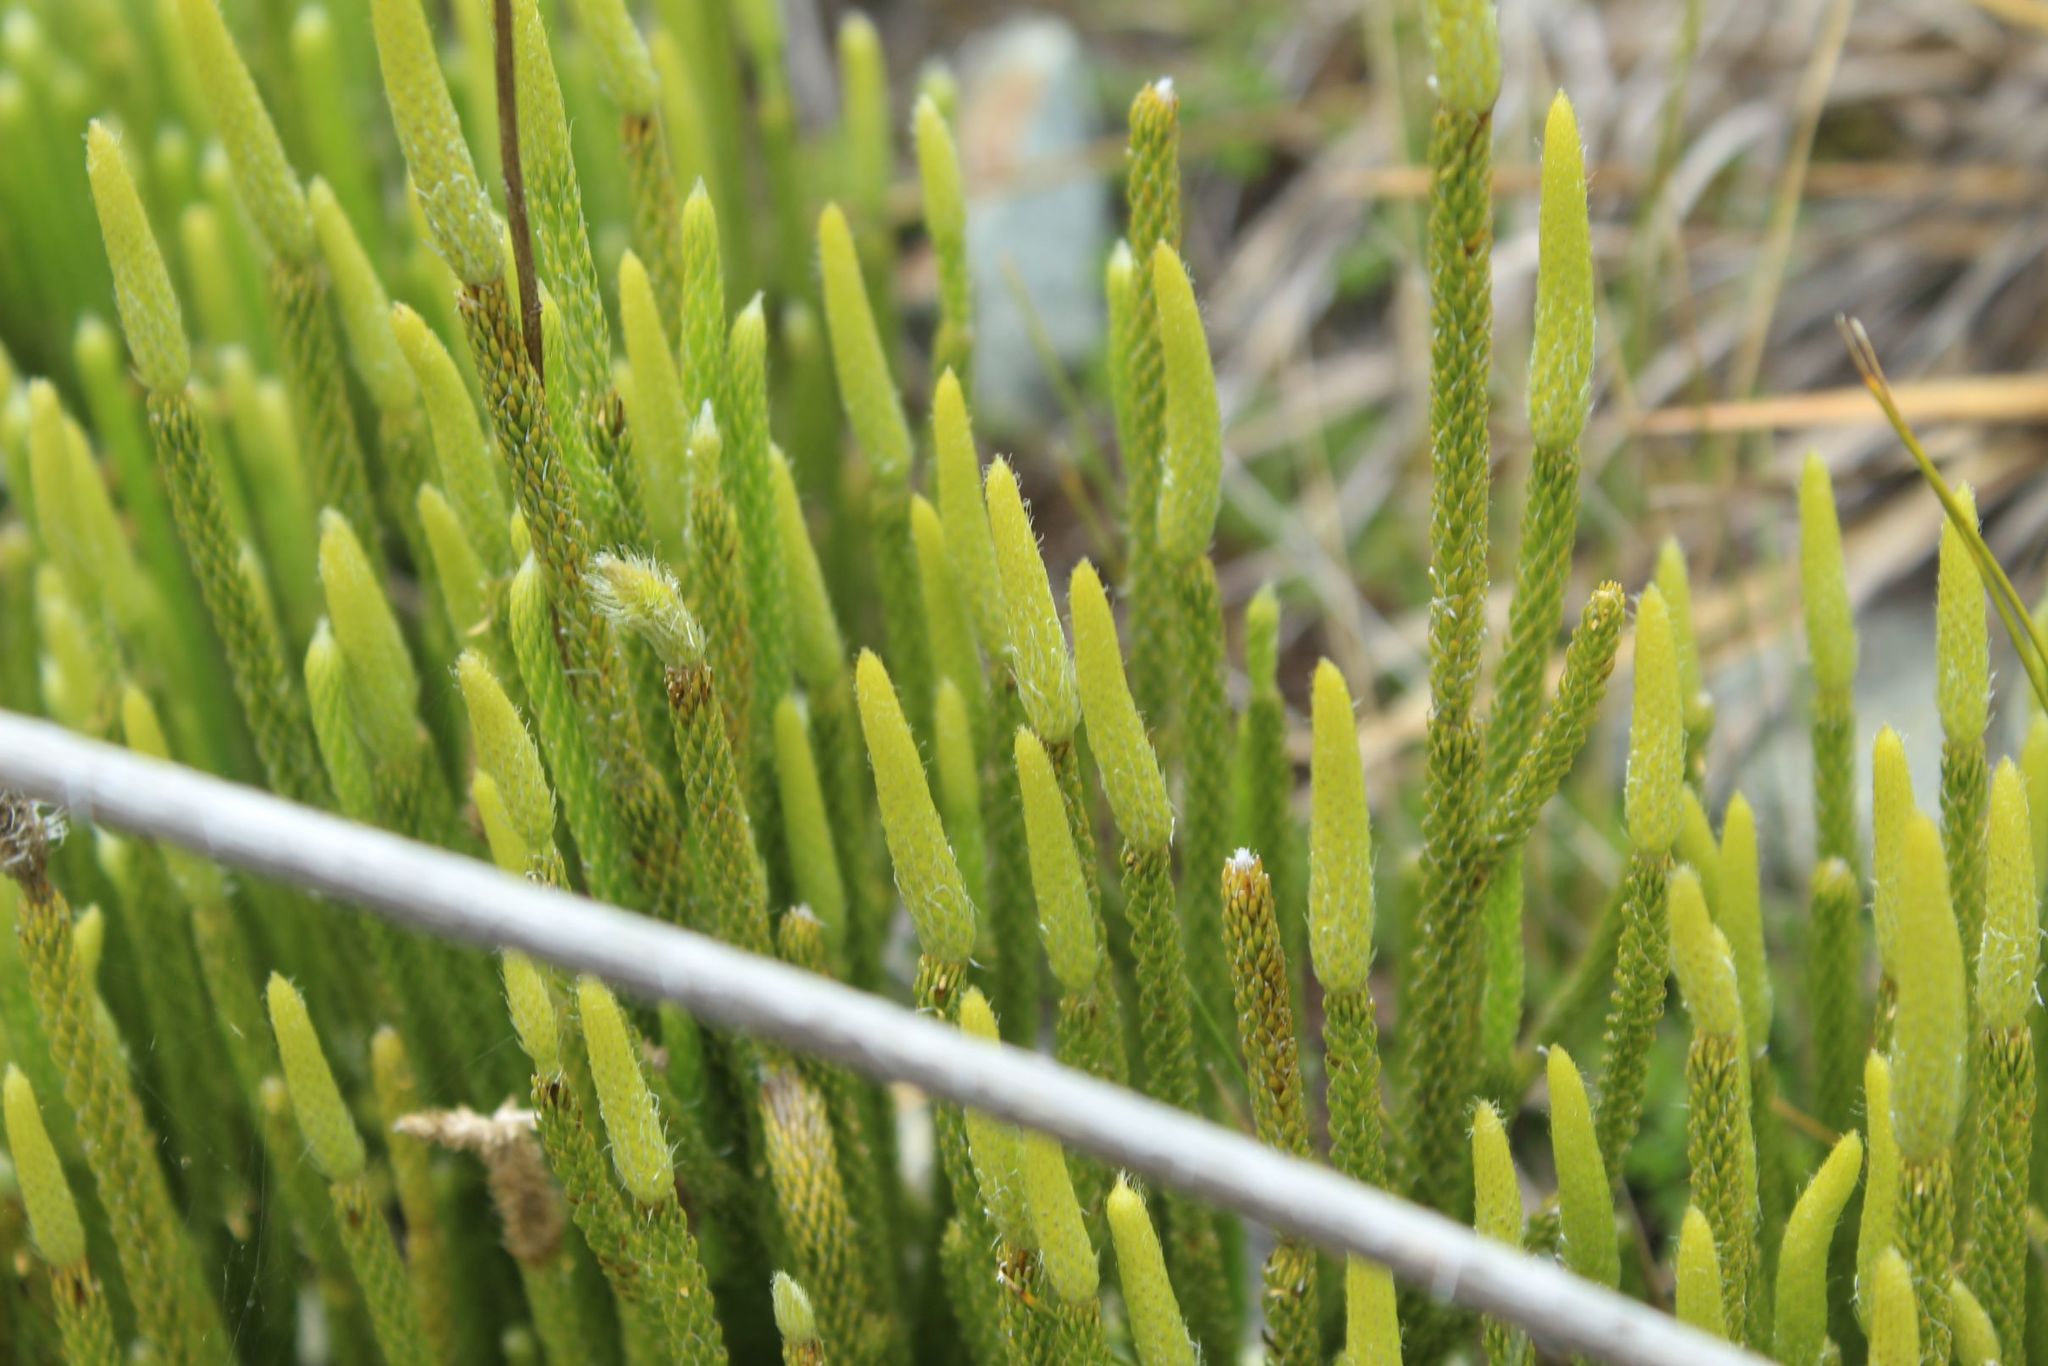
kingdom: Plantae
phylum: Tracheophyta
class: Lycopodiopsida
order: Lycopodiales
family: Lycopodiaceae
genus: Lycopodium
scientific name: Lycopodium clavatum
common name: Stag's-horn clubmoss
